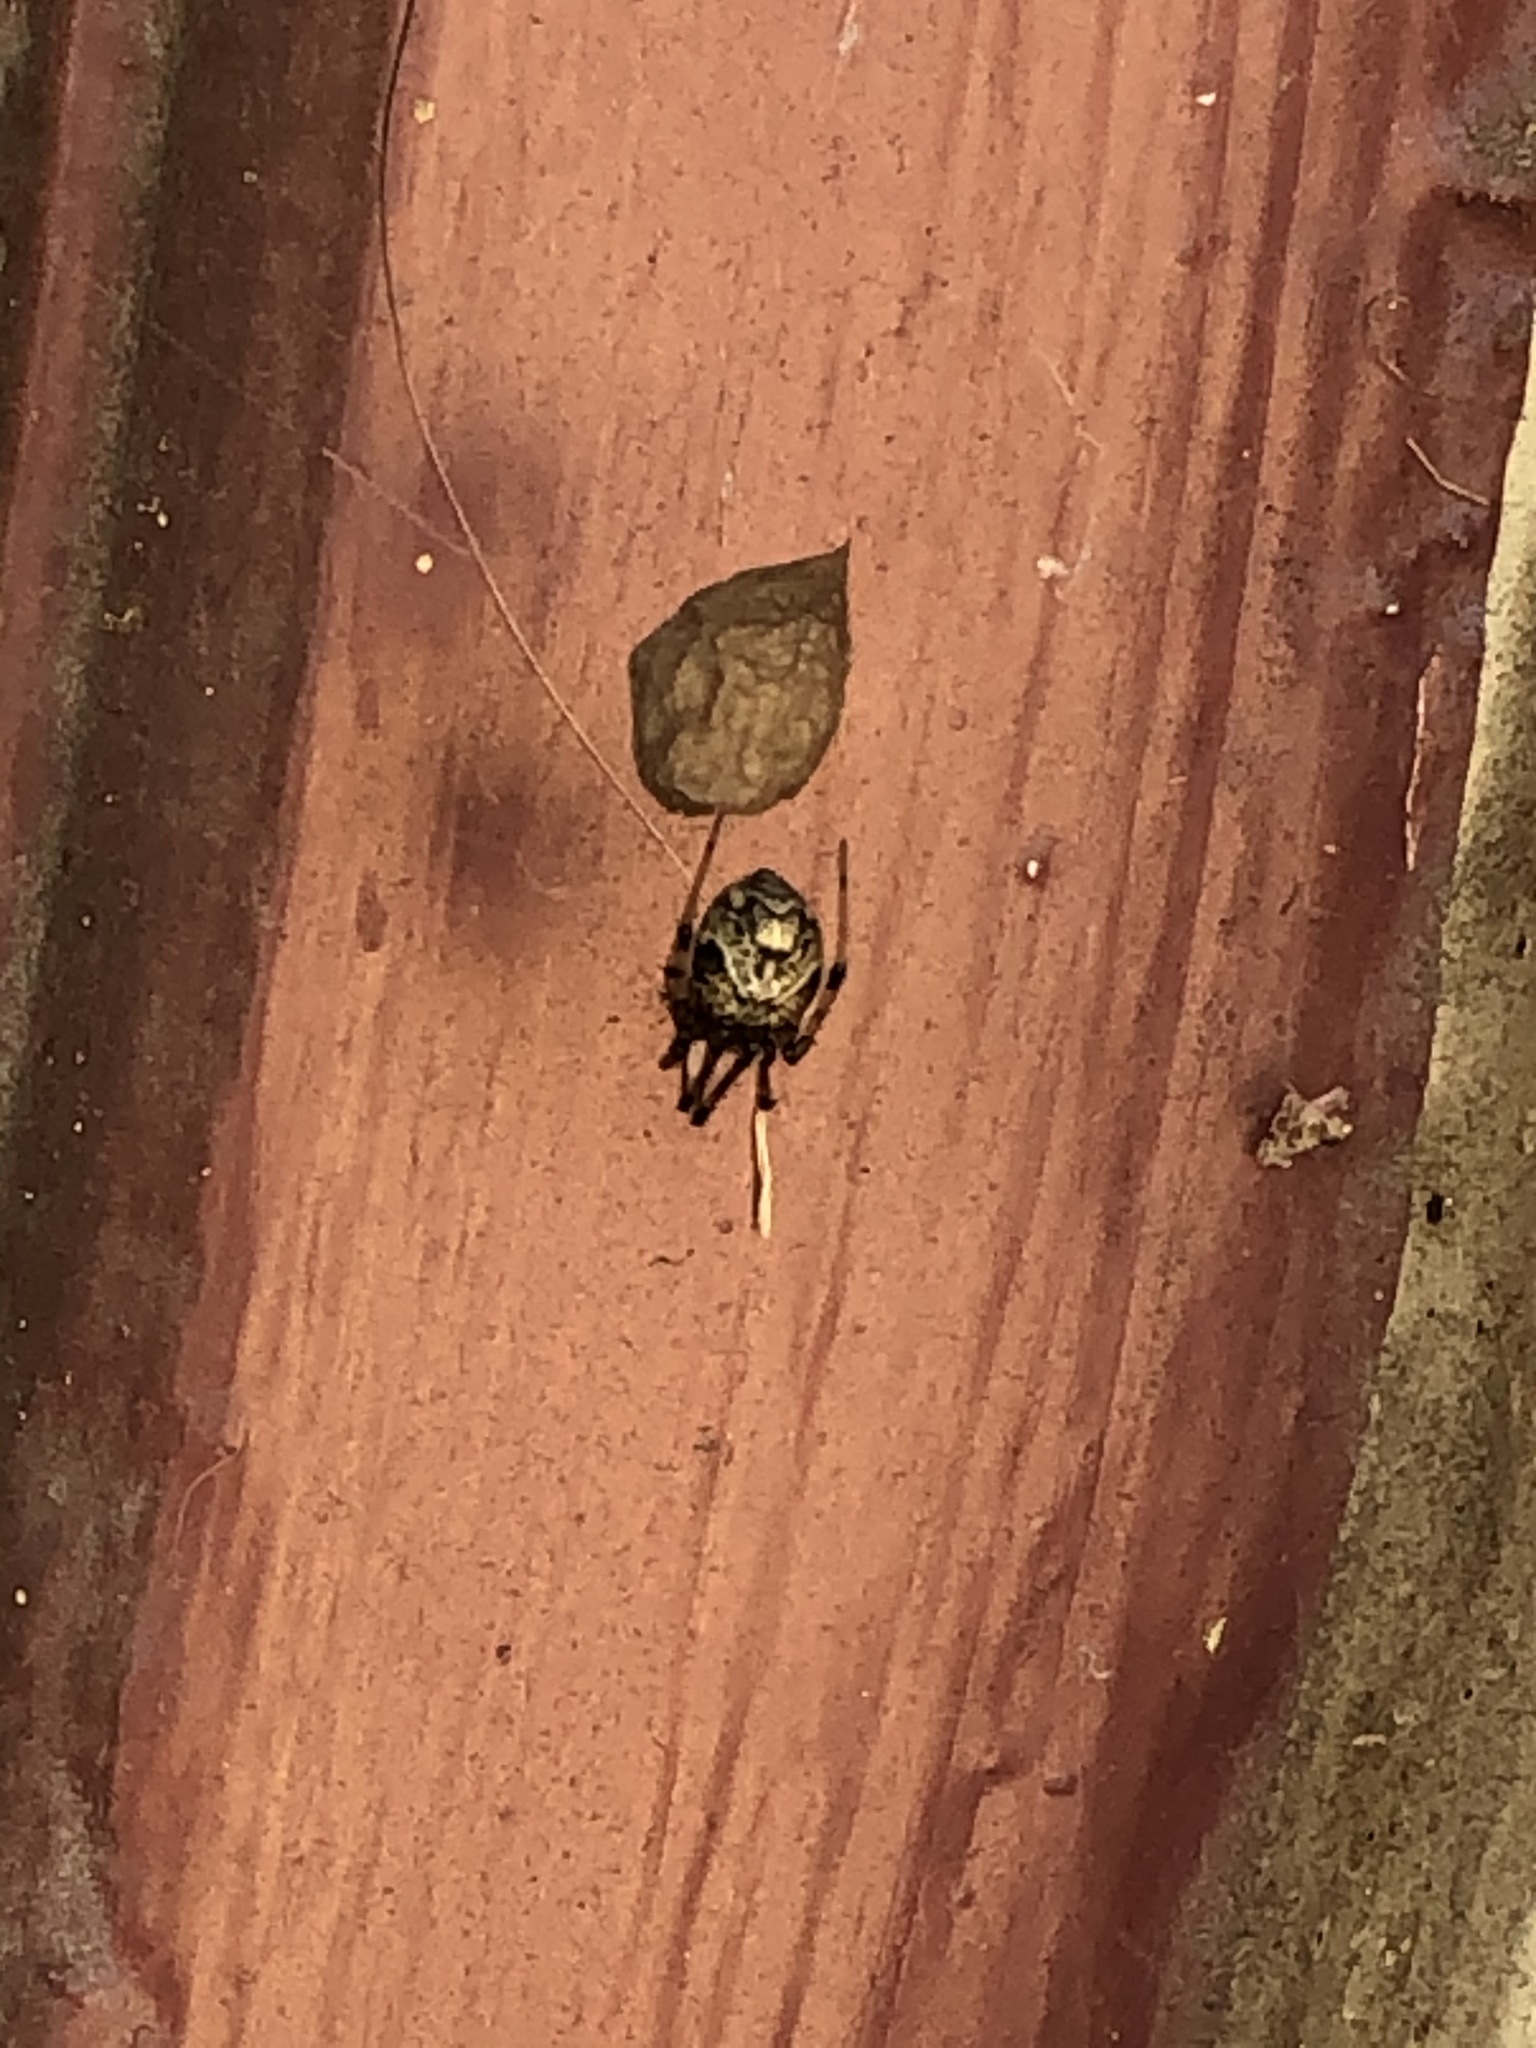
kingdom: Animalia
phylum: Arthropoda
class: Arachnida
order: Araneae
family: Theridiidae
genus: Parasteatoda
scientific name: Parasteatoda tepidariorum
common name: Common house spider
